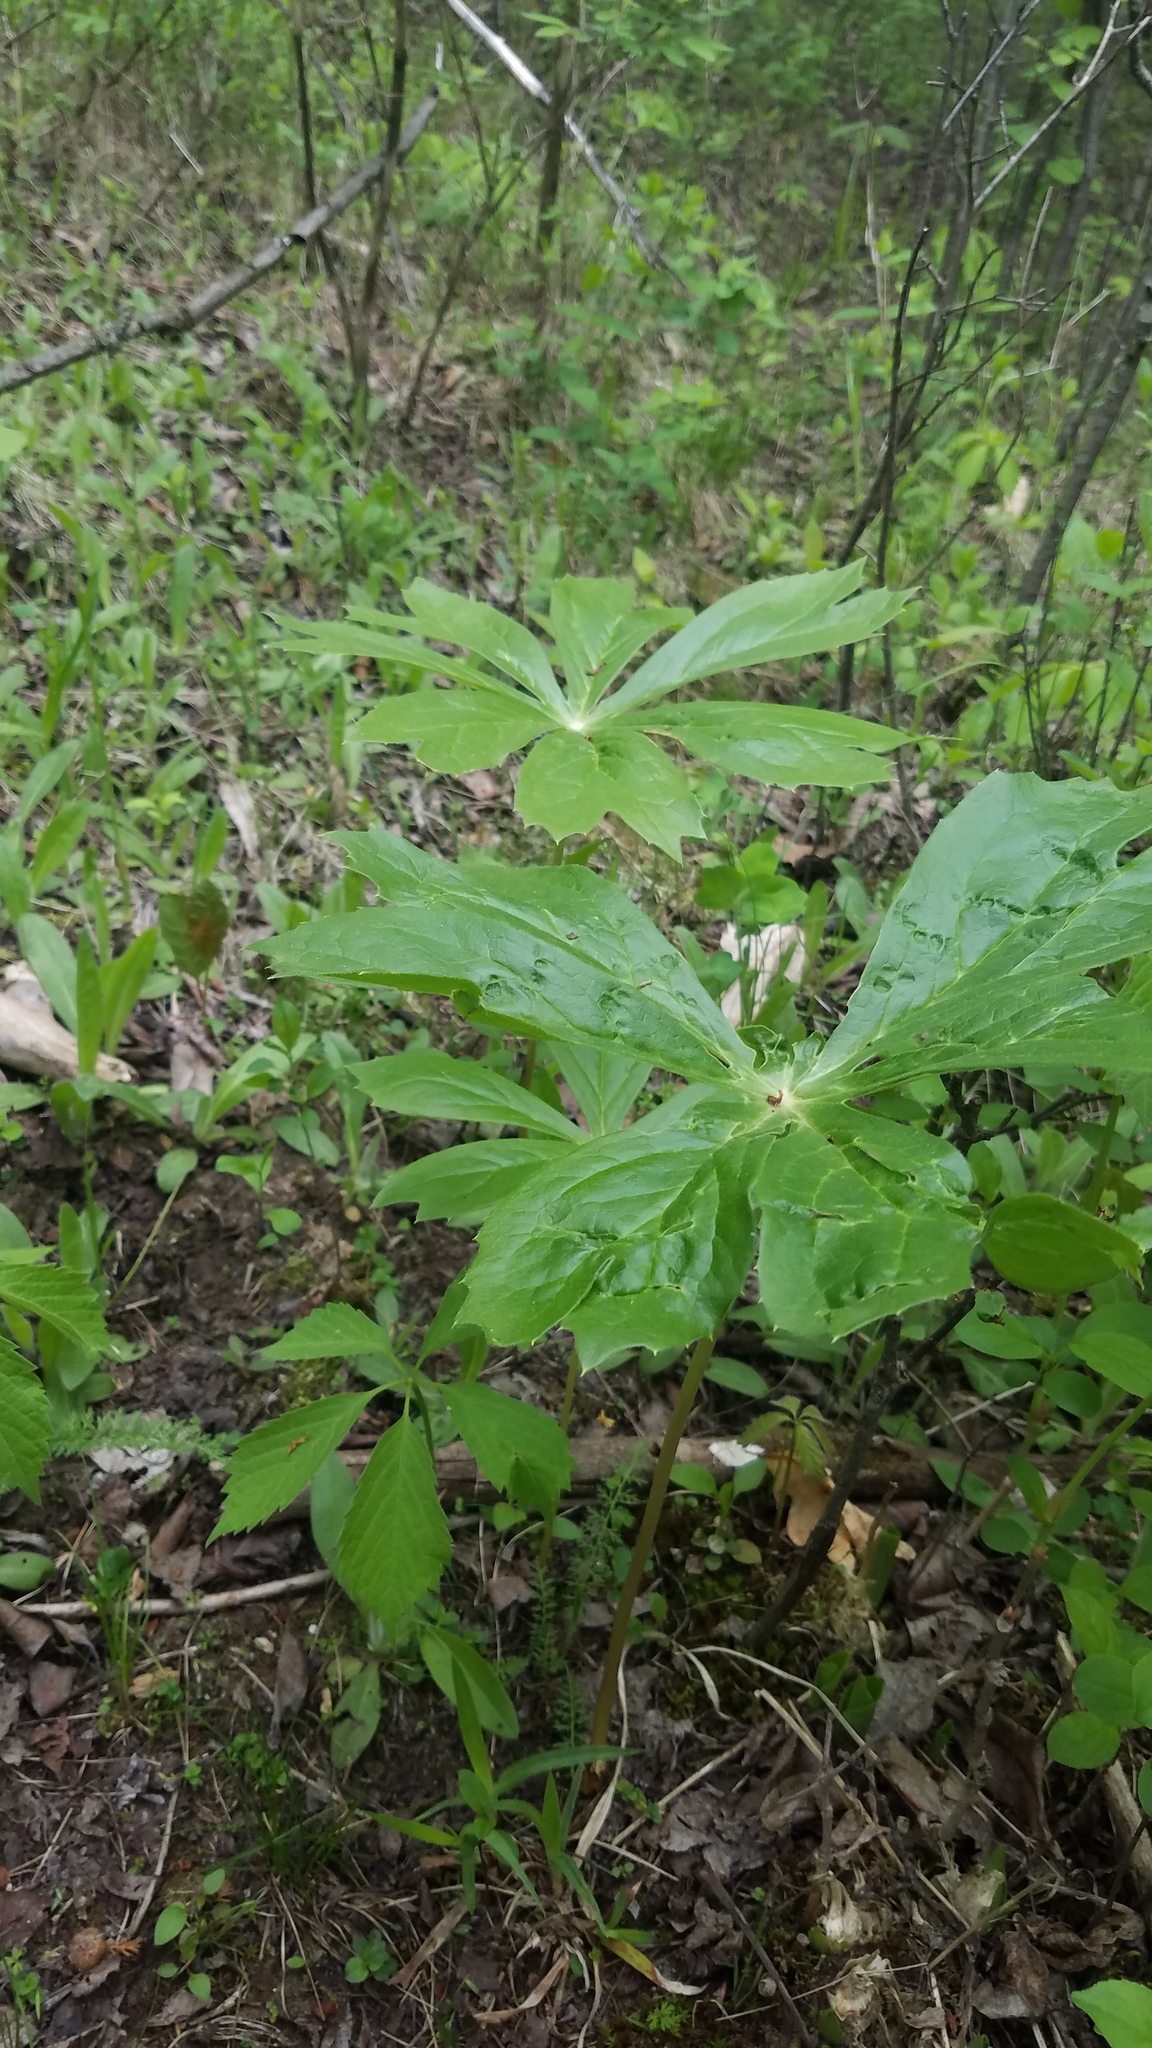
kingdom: Plantae
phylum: Tracheophyta
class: Magnoliopsida
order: Ranunculales
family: Berberidaceae
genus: Podophyllum
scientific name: Podophyllum peltatum
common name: Wild mandrake
